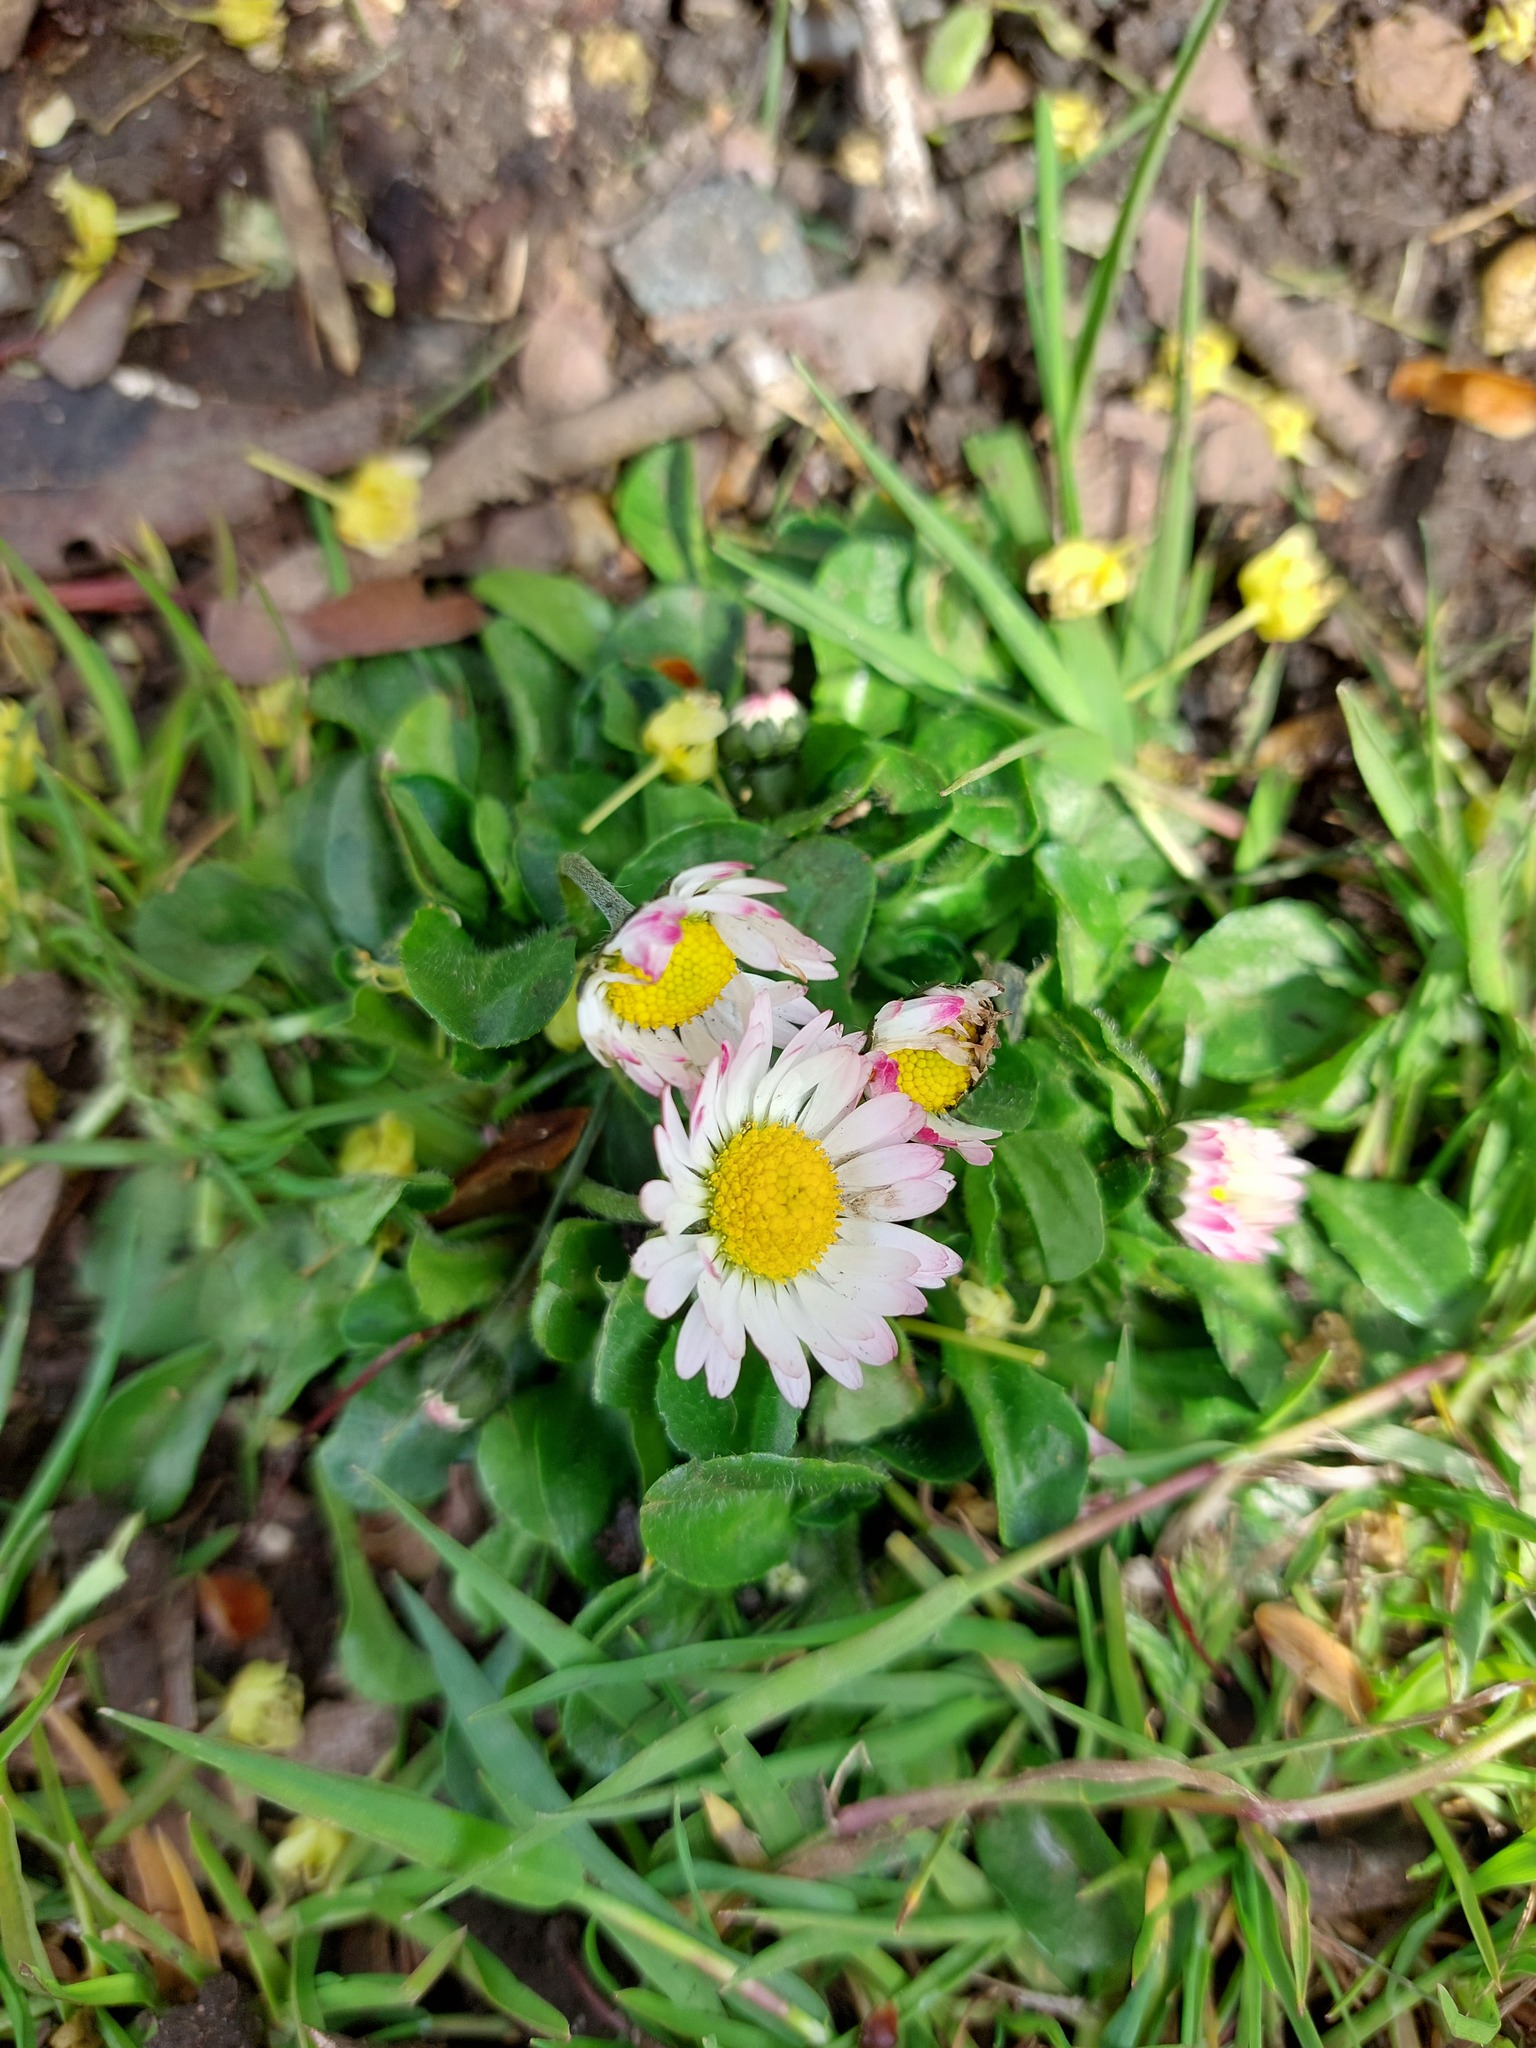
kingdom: Plantae
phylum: Tracheophyta
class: Magnoliopsida
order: Asterales
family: Asteraceae
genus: Bellis
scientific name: Bellis perennis
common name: Lawndaisy
